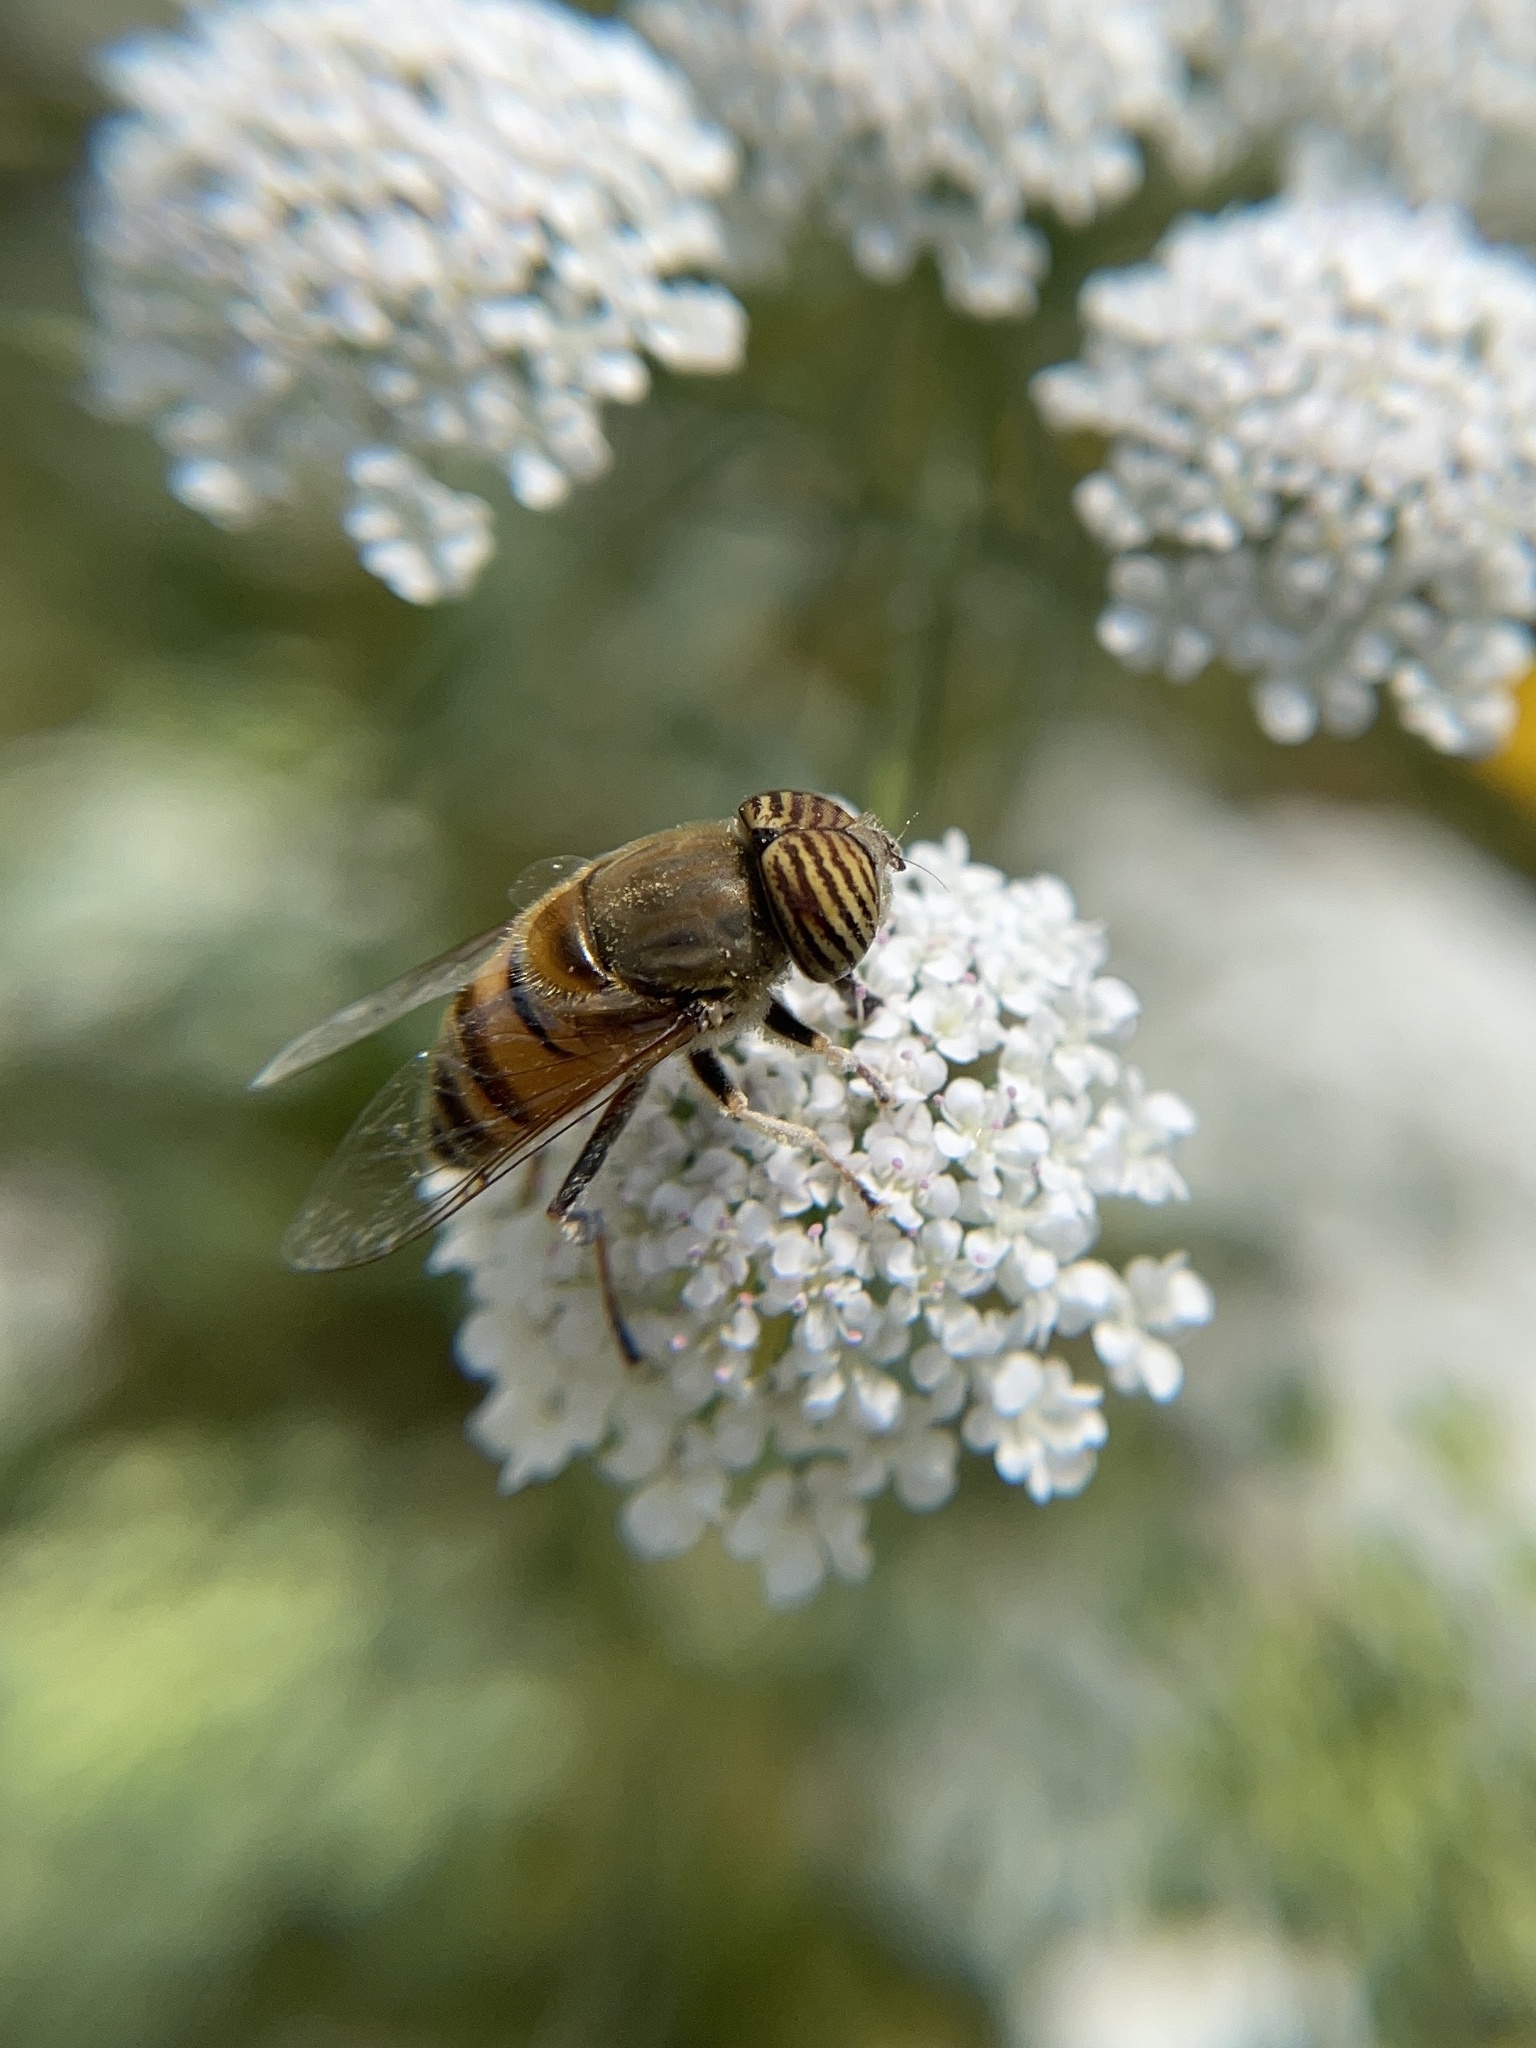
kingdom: Animalia
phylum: Arthropoda
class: Insecta
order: Diptera
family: Syrphidae
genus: Eristalinus
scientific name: Eristalinus taeniops
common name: Syrphid fly
